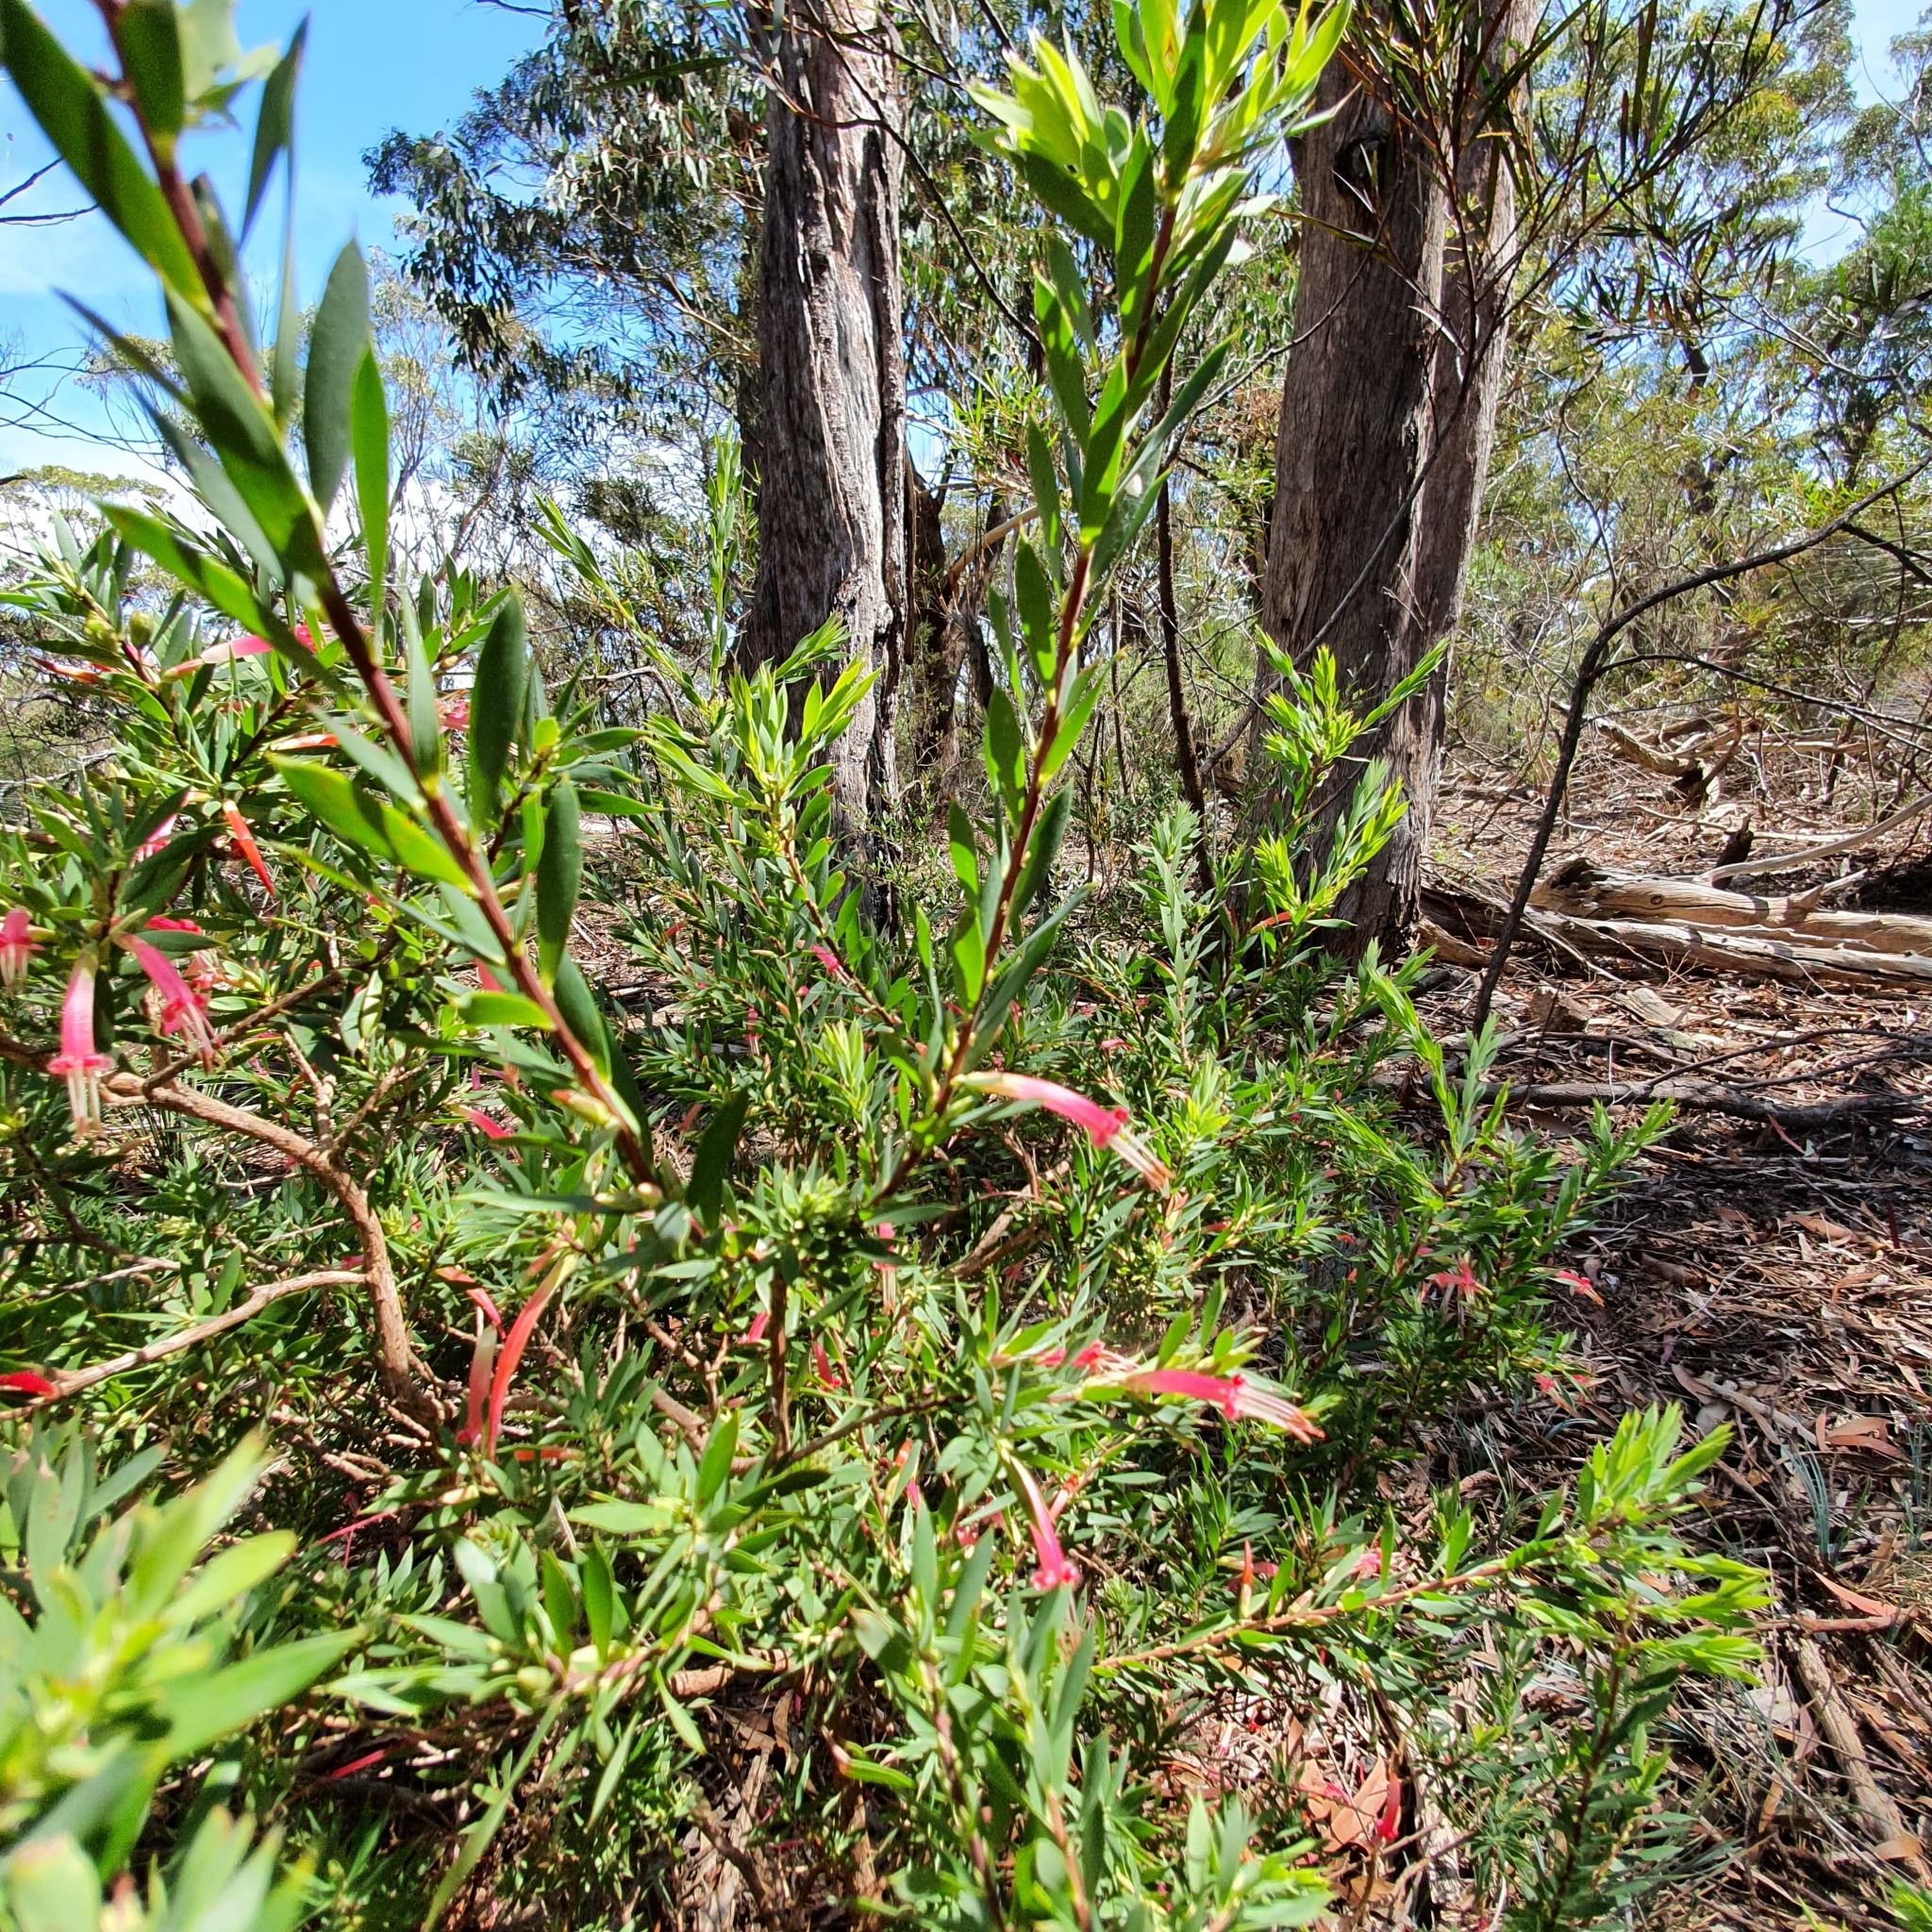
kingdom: Plantae
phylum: Tracheophyta
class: Magnoliopsida
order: Ericales
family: Ericaceae
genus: Styphelia
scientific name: Styphelia triflora
